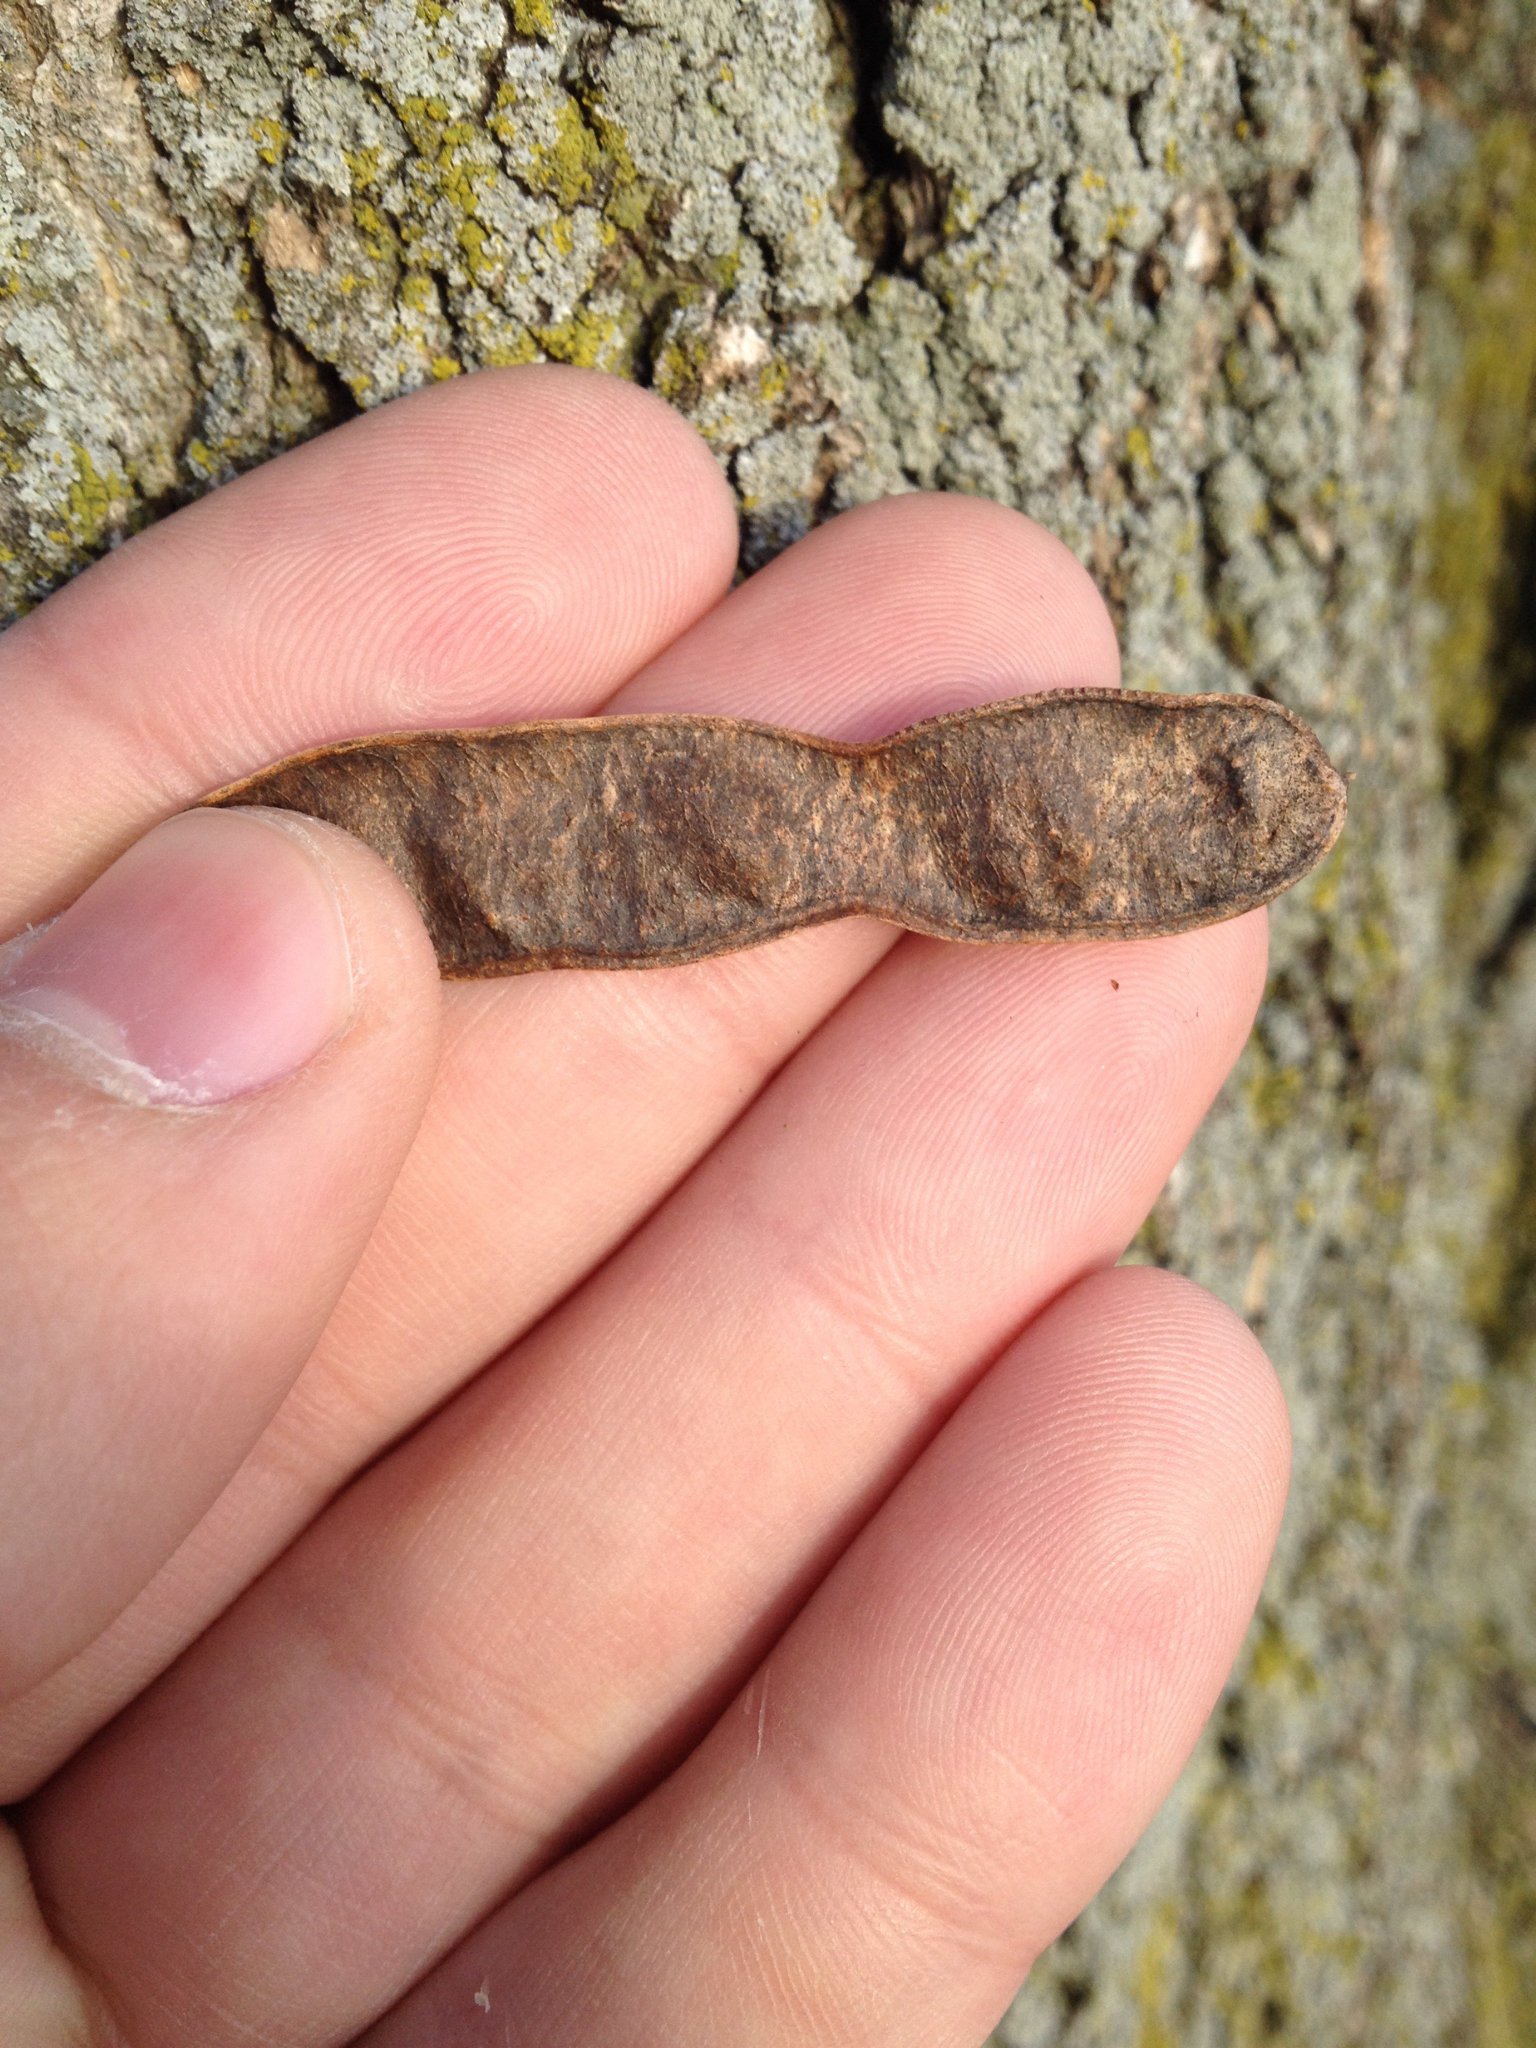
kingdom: Plantae
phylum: Tracheophyta
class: Magnoliopsida
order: Fabales
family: Fabaceae
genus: Robinia
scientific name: Robinia pseudoacacia
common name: Black locust
